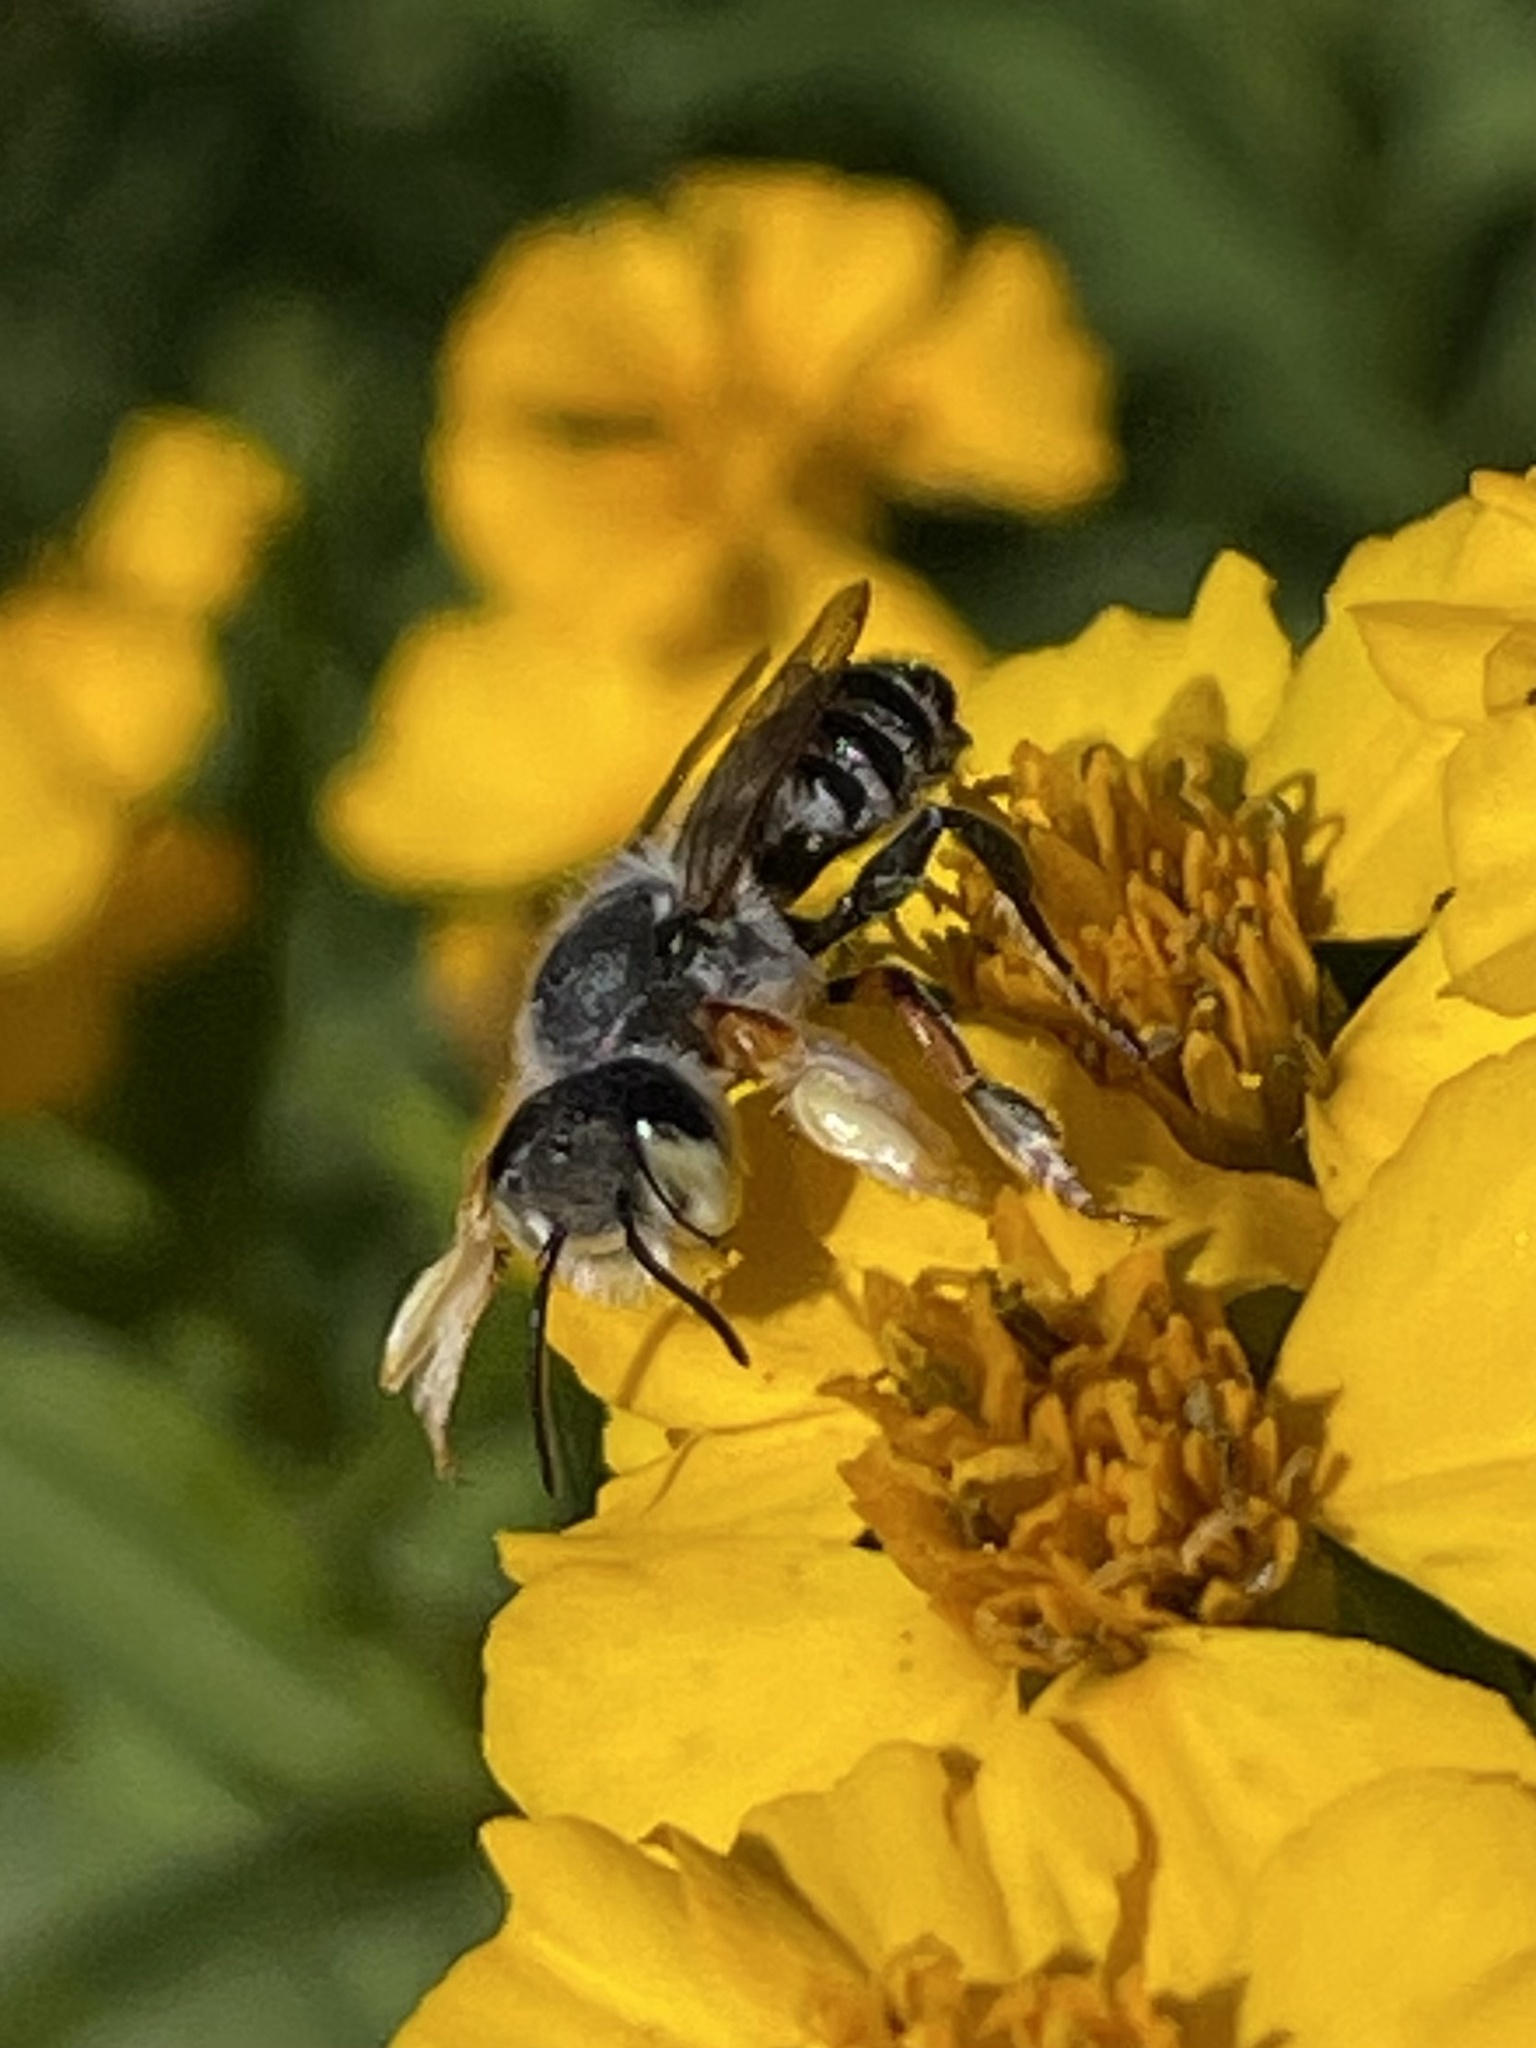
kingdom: Animalia
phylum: Arthropoda
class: Insecta
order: Hymenoptera
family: Megachilidae
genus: Megachile
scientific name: Megachile policaris
